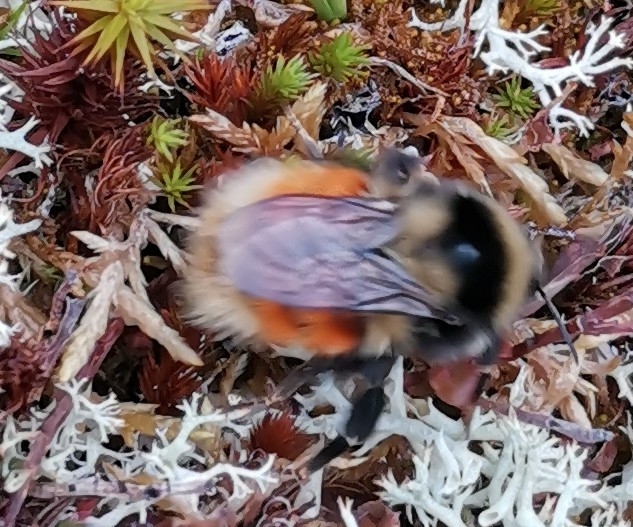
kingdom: Animalia
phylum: Arthropoda
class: Insecta
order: Hymenoptera
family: Apidae
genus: Bombus
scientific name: Bombus lapponicus
